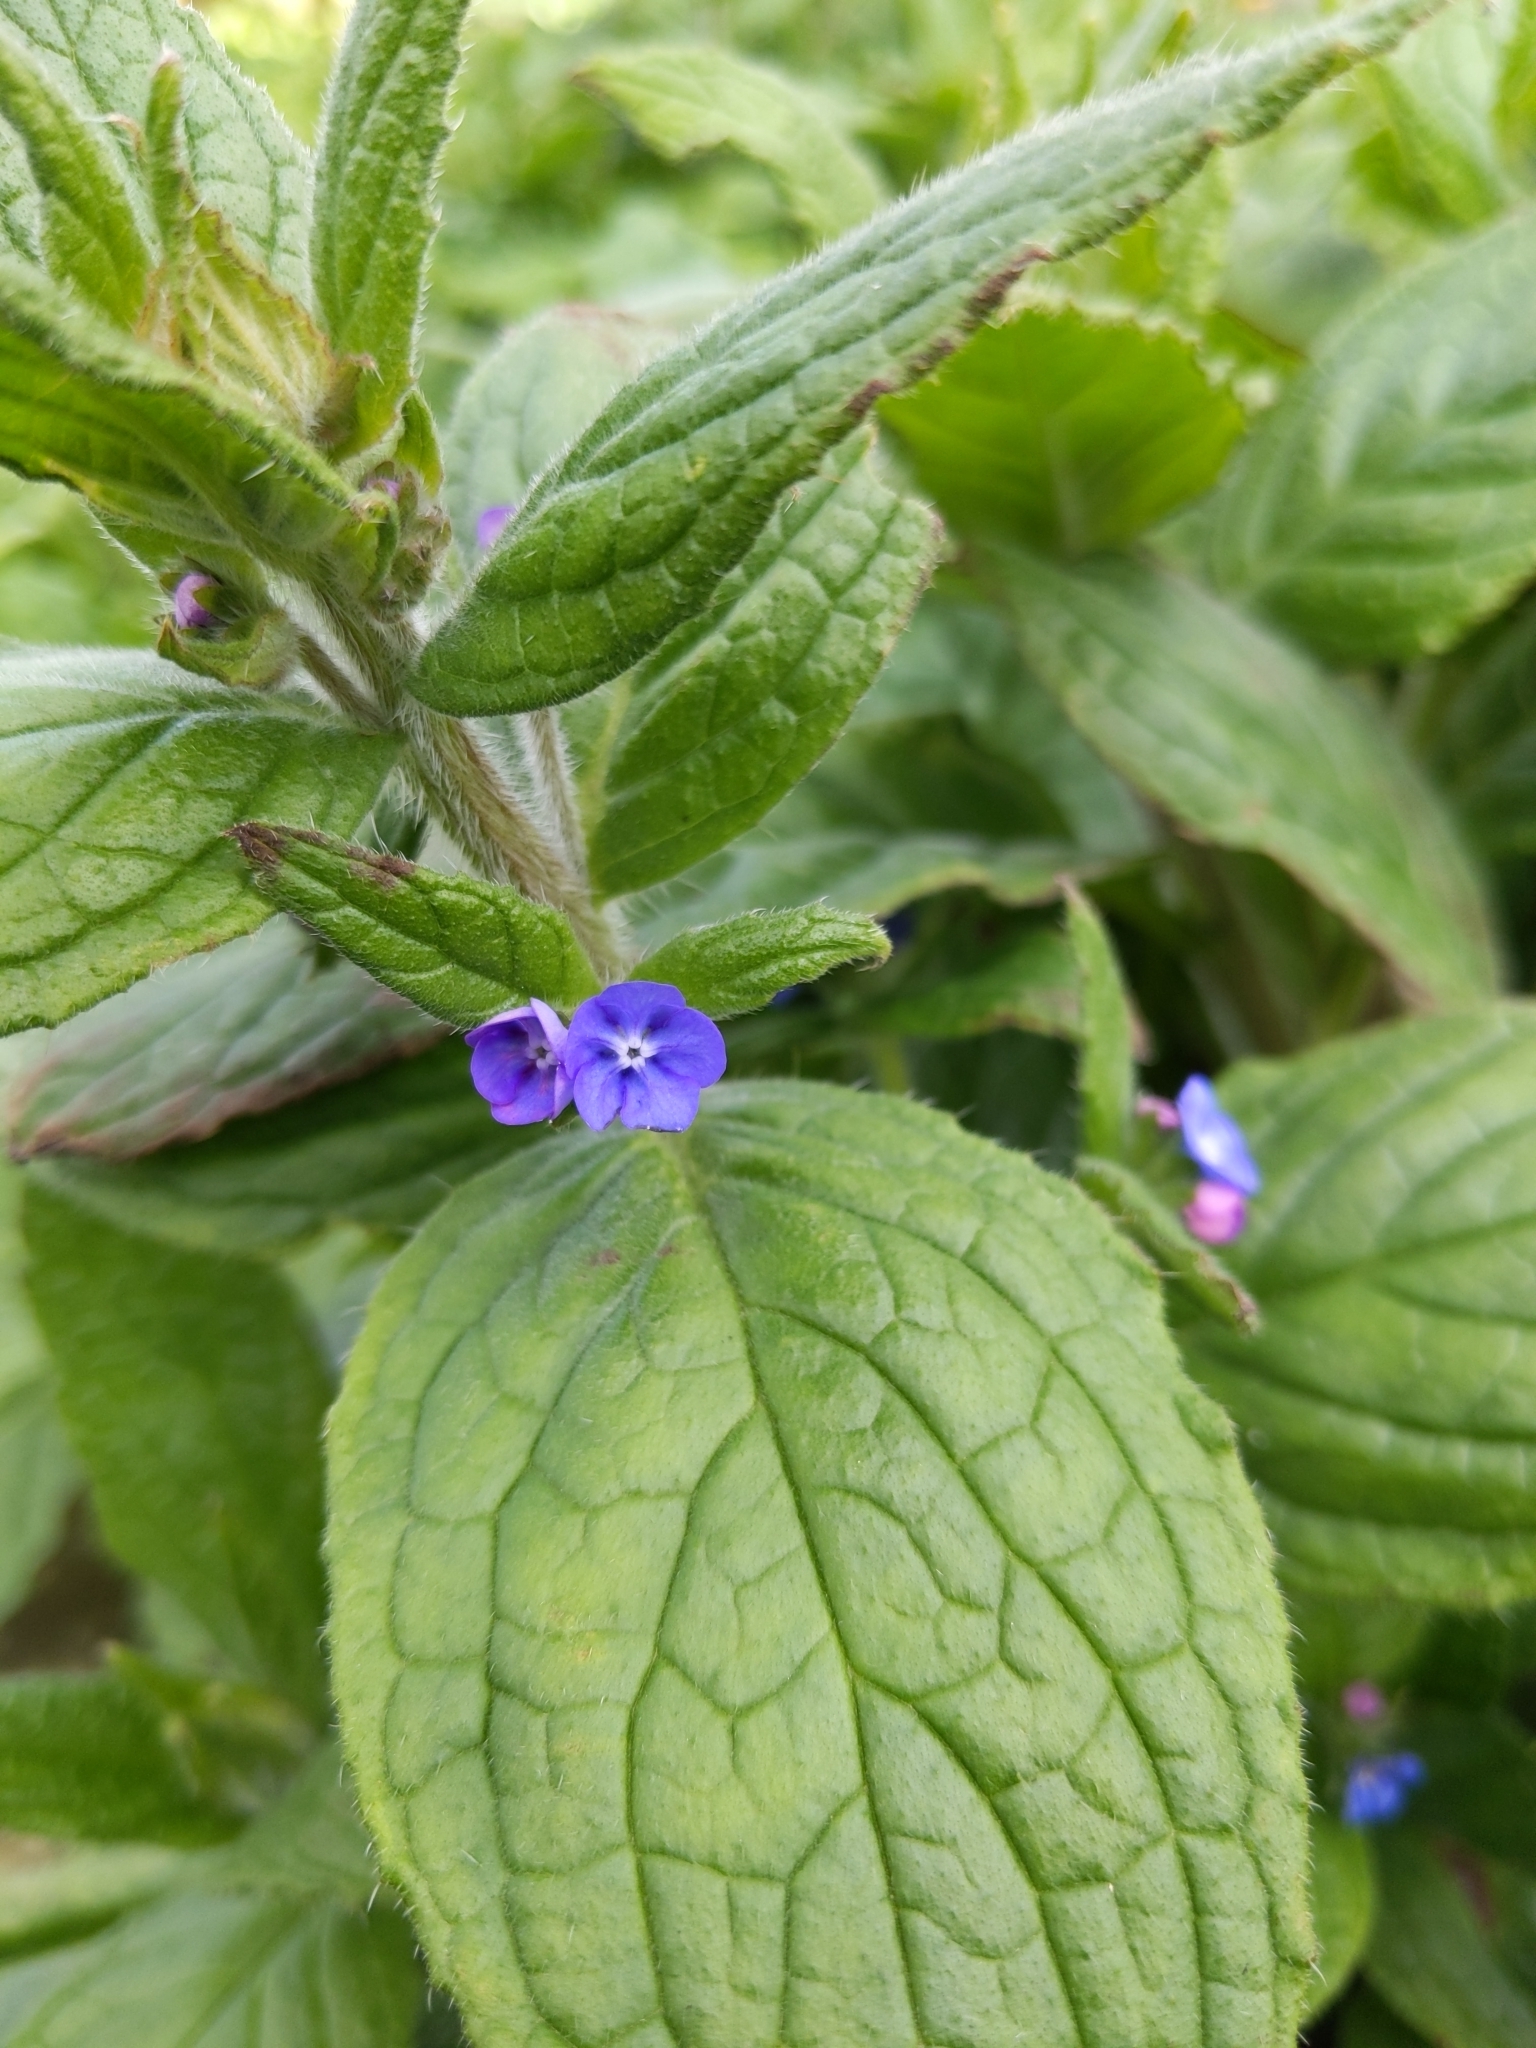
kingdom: Plantae
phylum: Tracheophyta
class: Magnoliopsida
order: Boraginales
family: Boraginaceae
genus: Pentaglottis
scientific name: Pentaglottis sempervirens
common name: Green alkanet
